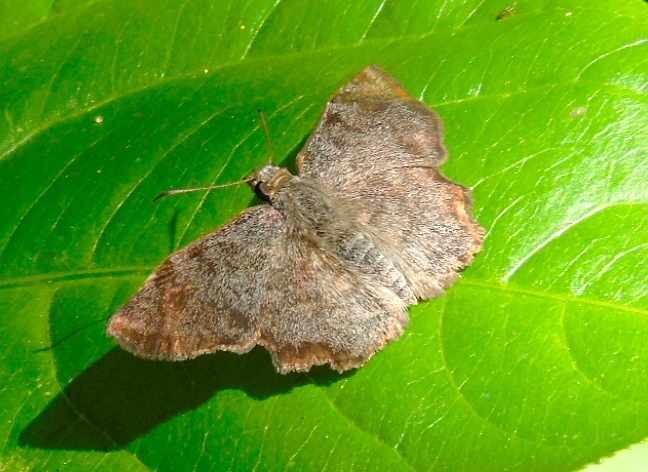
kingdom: Animalia
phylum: Arthropoda
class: Insecta
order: Lepidoptera
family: Hesperiidae
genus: Antigonus
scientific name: Antigonus erosus
